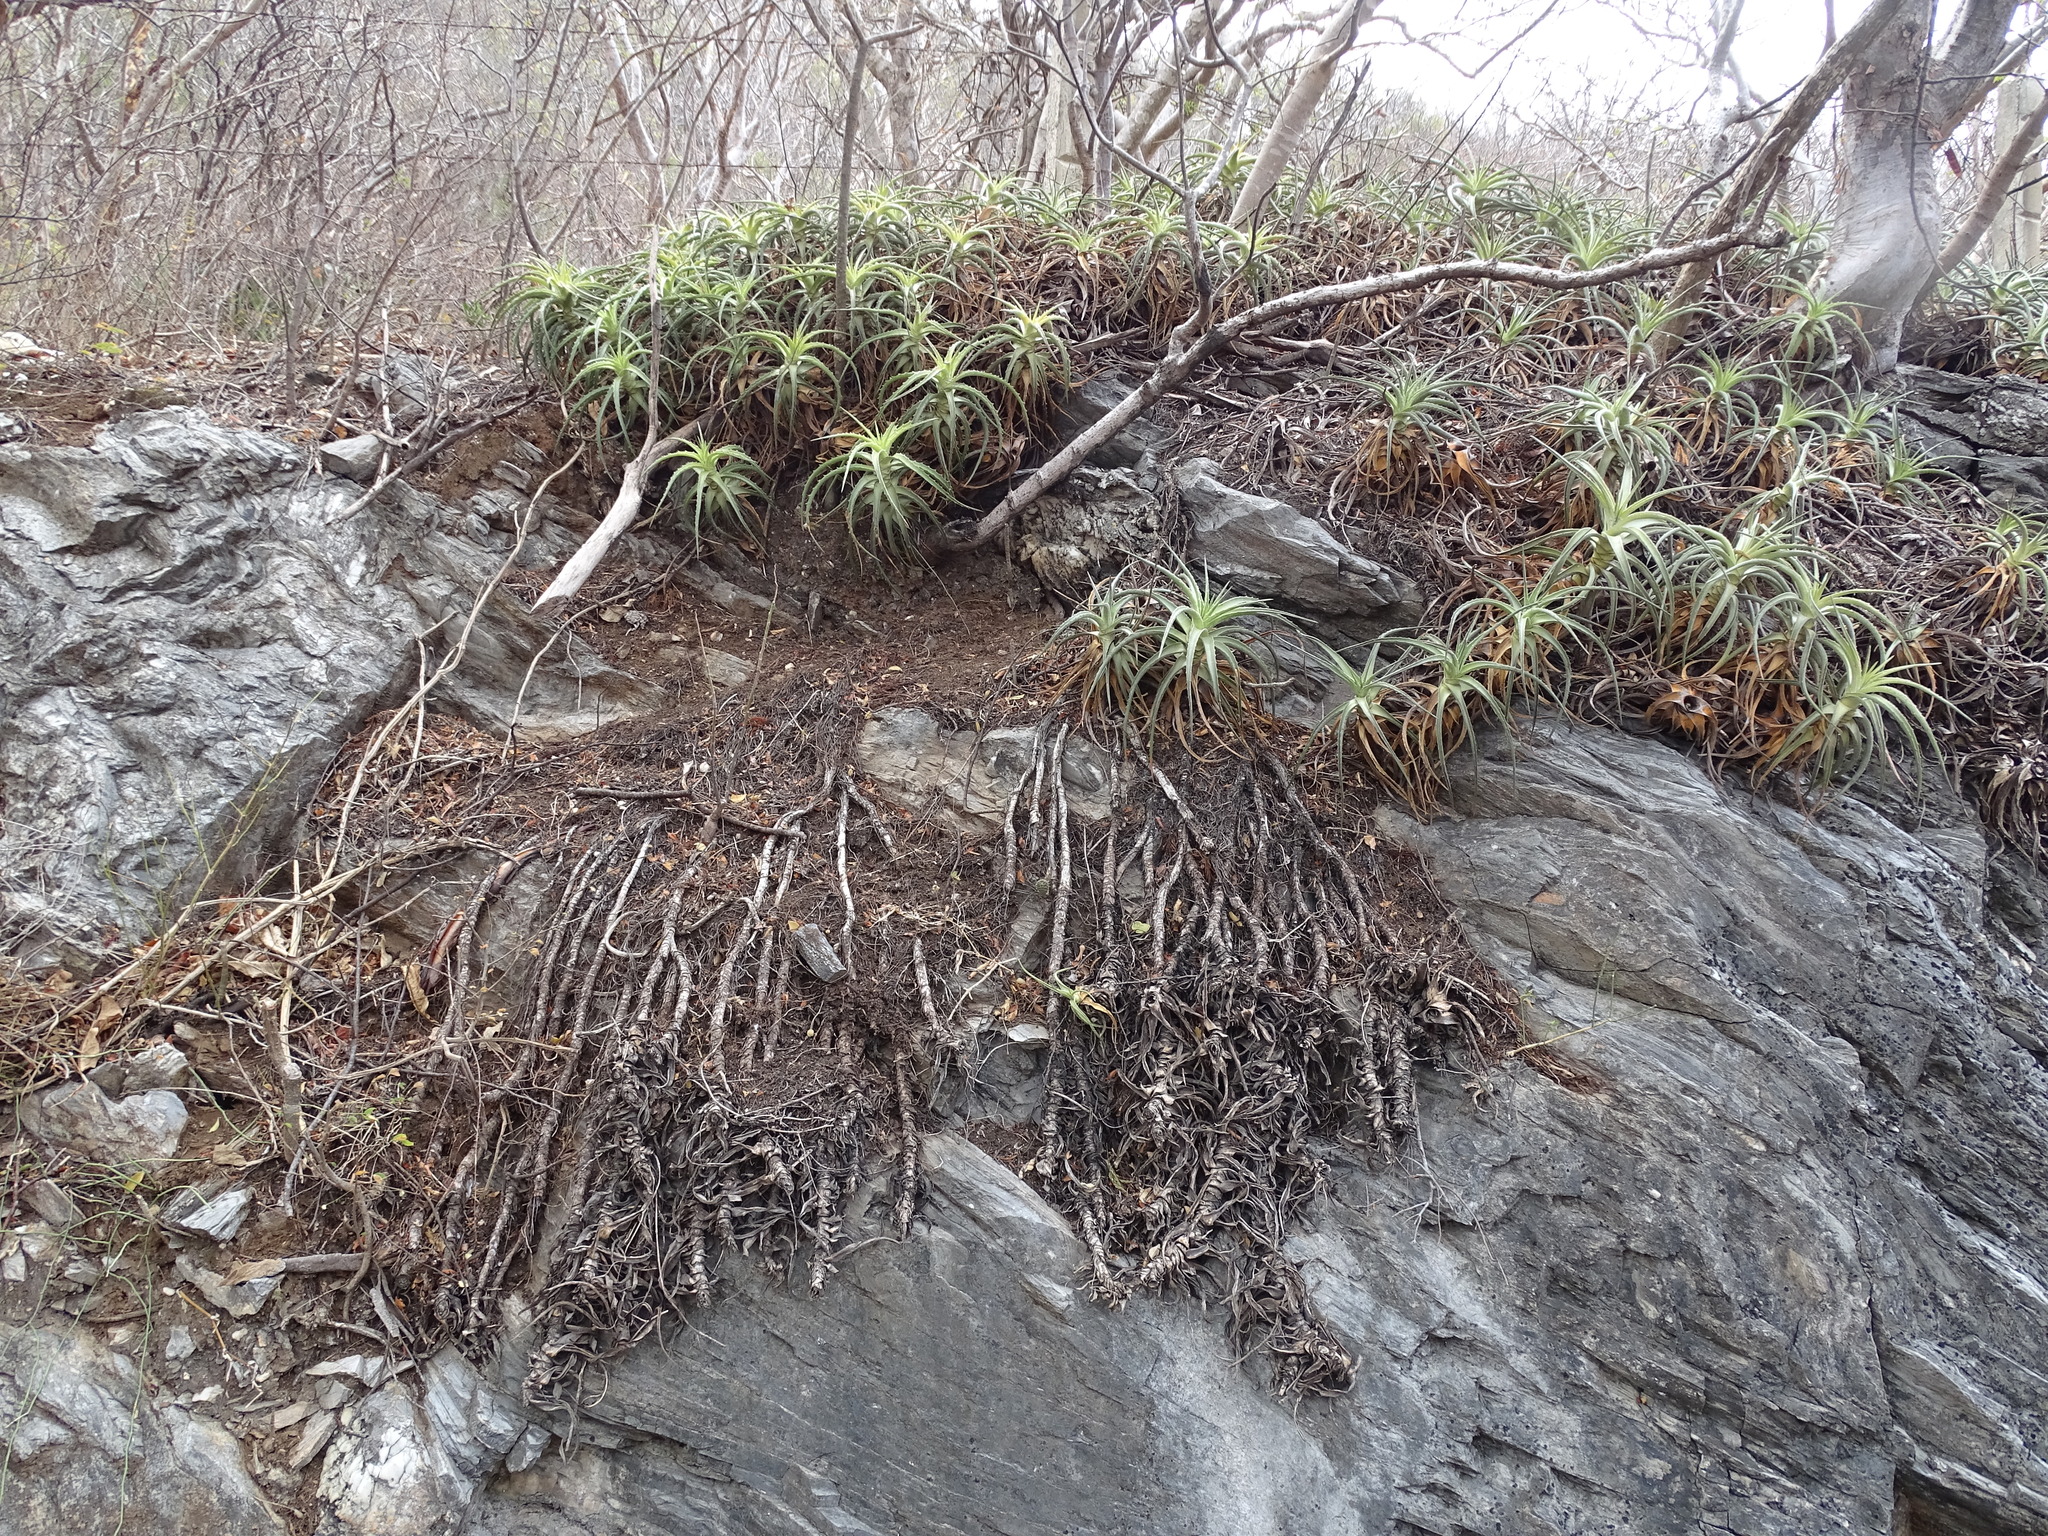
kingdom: Plantae
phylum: Tracheophyta
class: Liliopsida
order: Poales
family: Bromeliaceae
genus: Hechtia
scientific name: Hechtia isthmusiana
